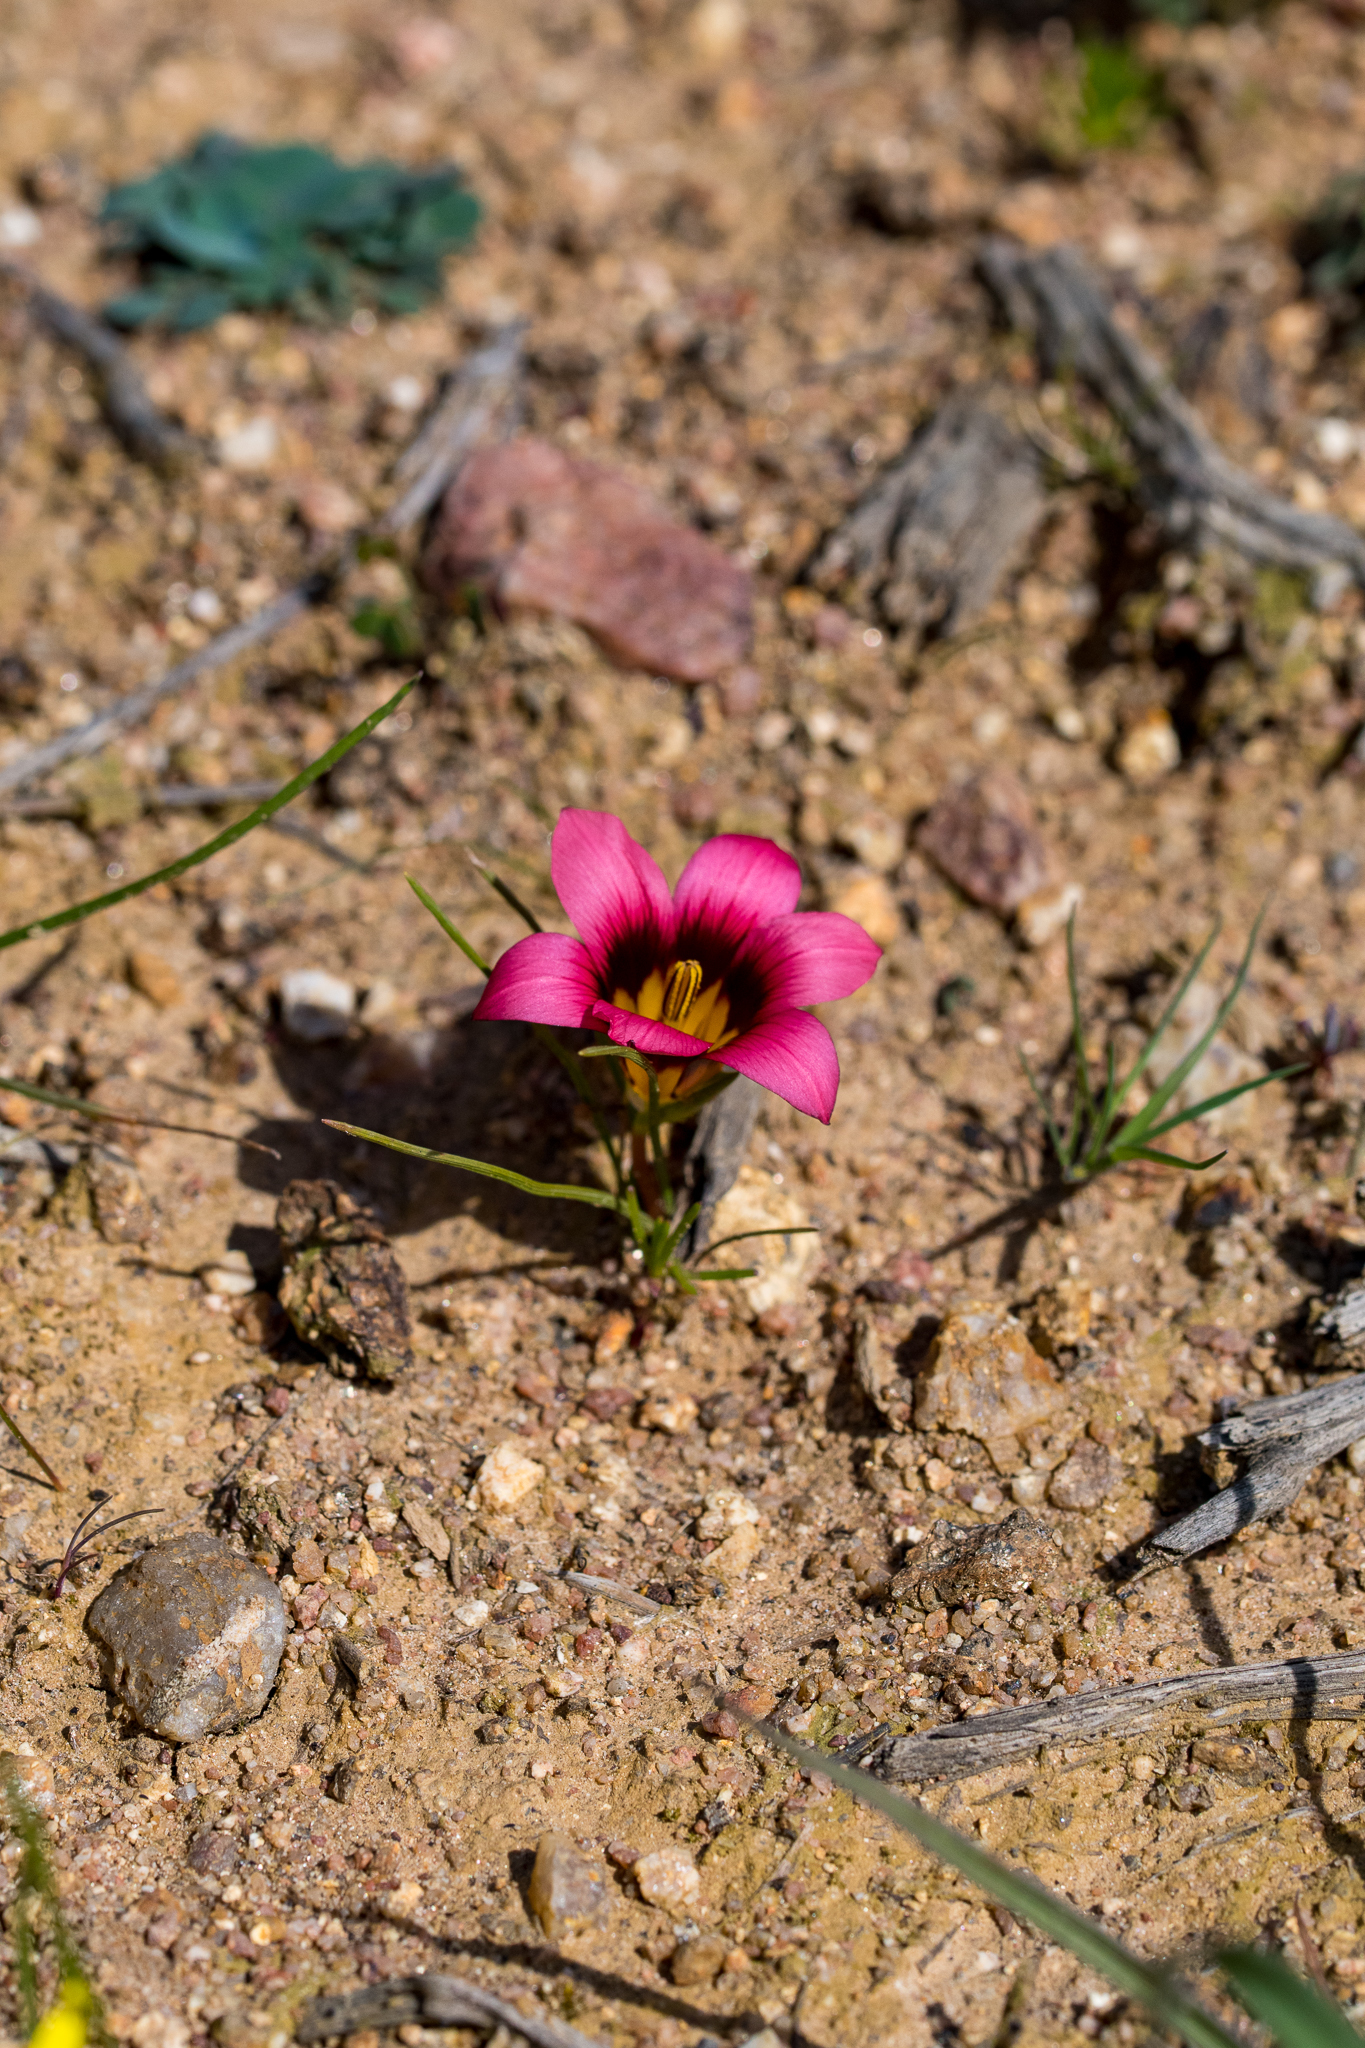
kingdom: Plantae
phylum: Tracheophyta
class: Liliopsida
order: Asparagales
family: Iridaceae
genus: Romulea
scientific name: Romulea cruciata
